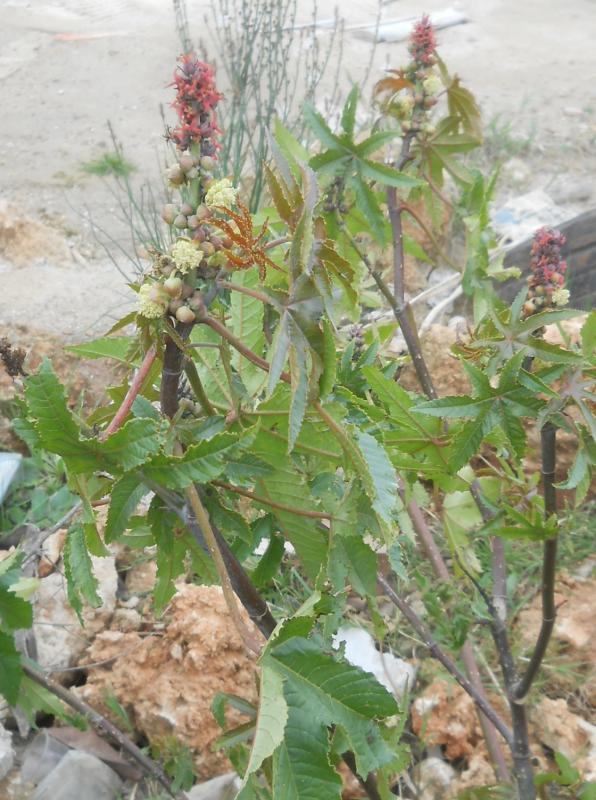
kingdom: Plantae
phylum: Tracheophyta
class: Magnoliopsida
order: Malpighiales
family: Euphorbiaceae
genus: Ricinus
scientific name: Ricinus communis
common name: Castor-oil-plant
